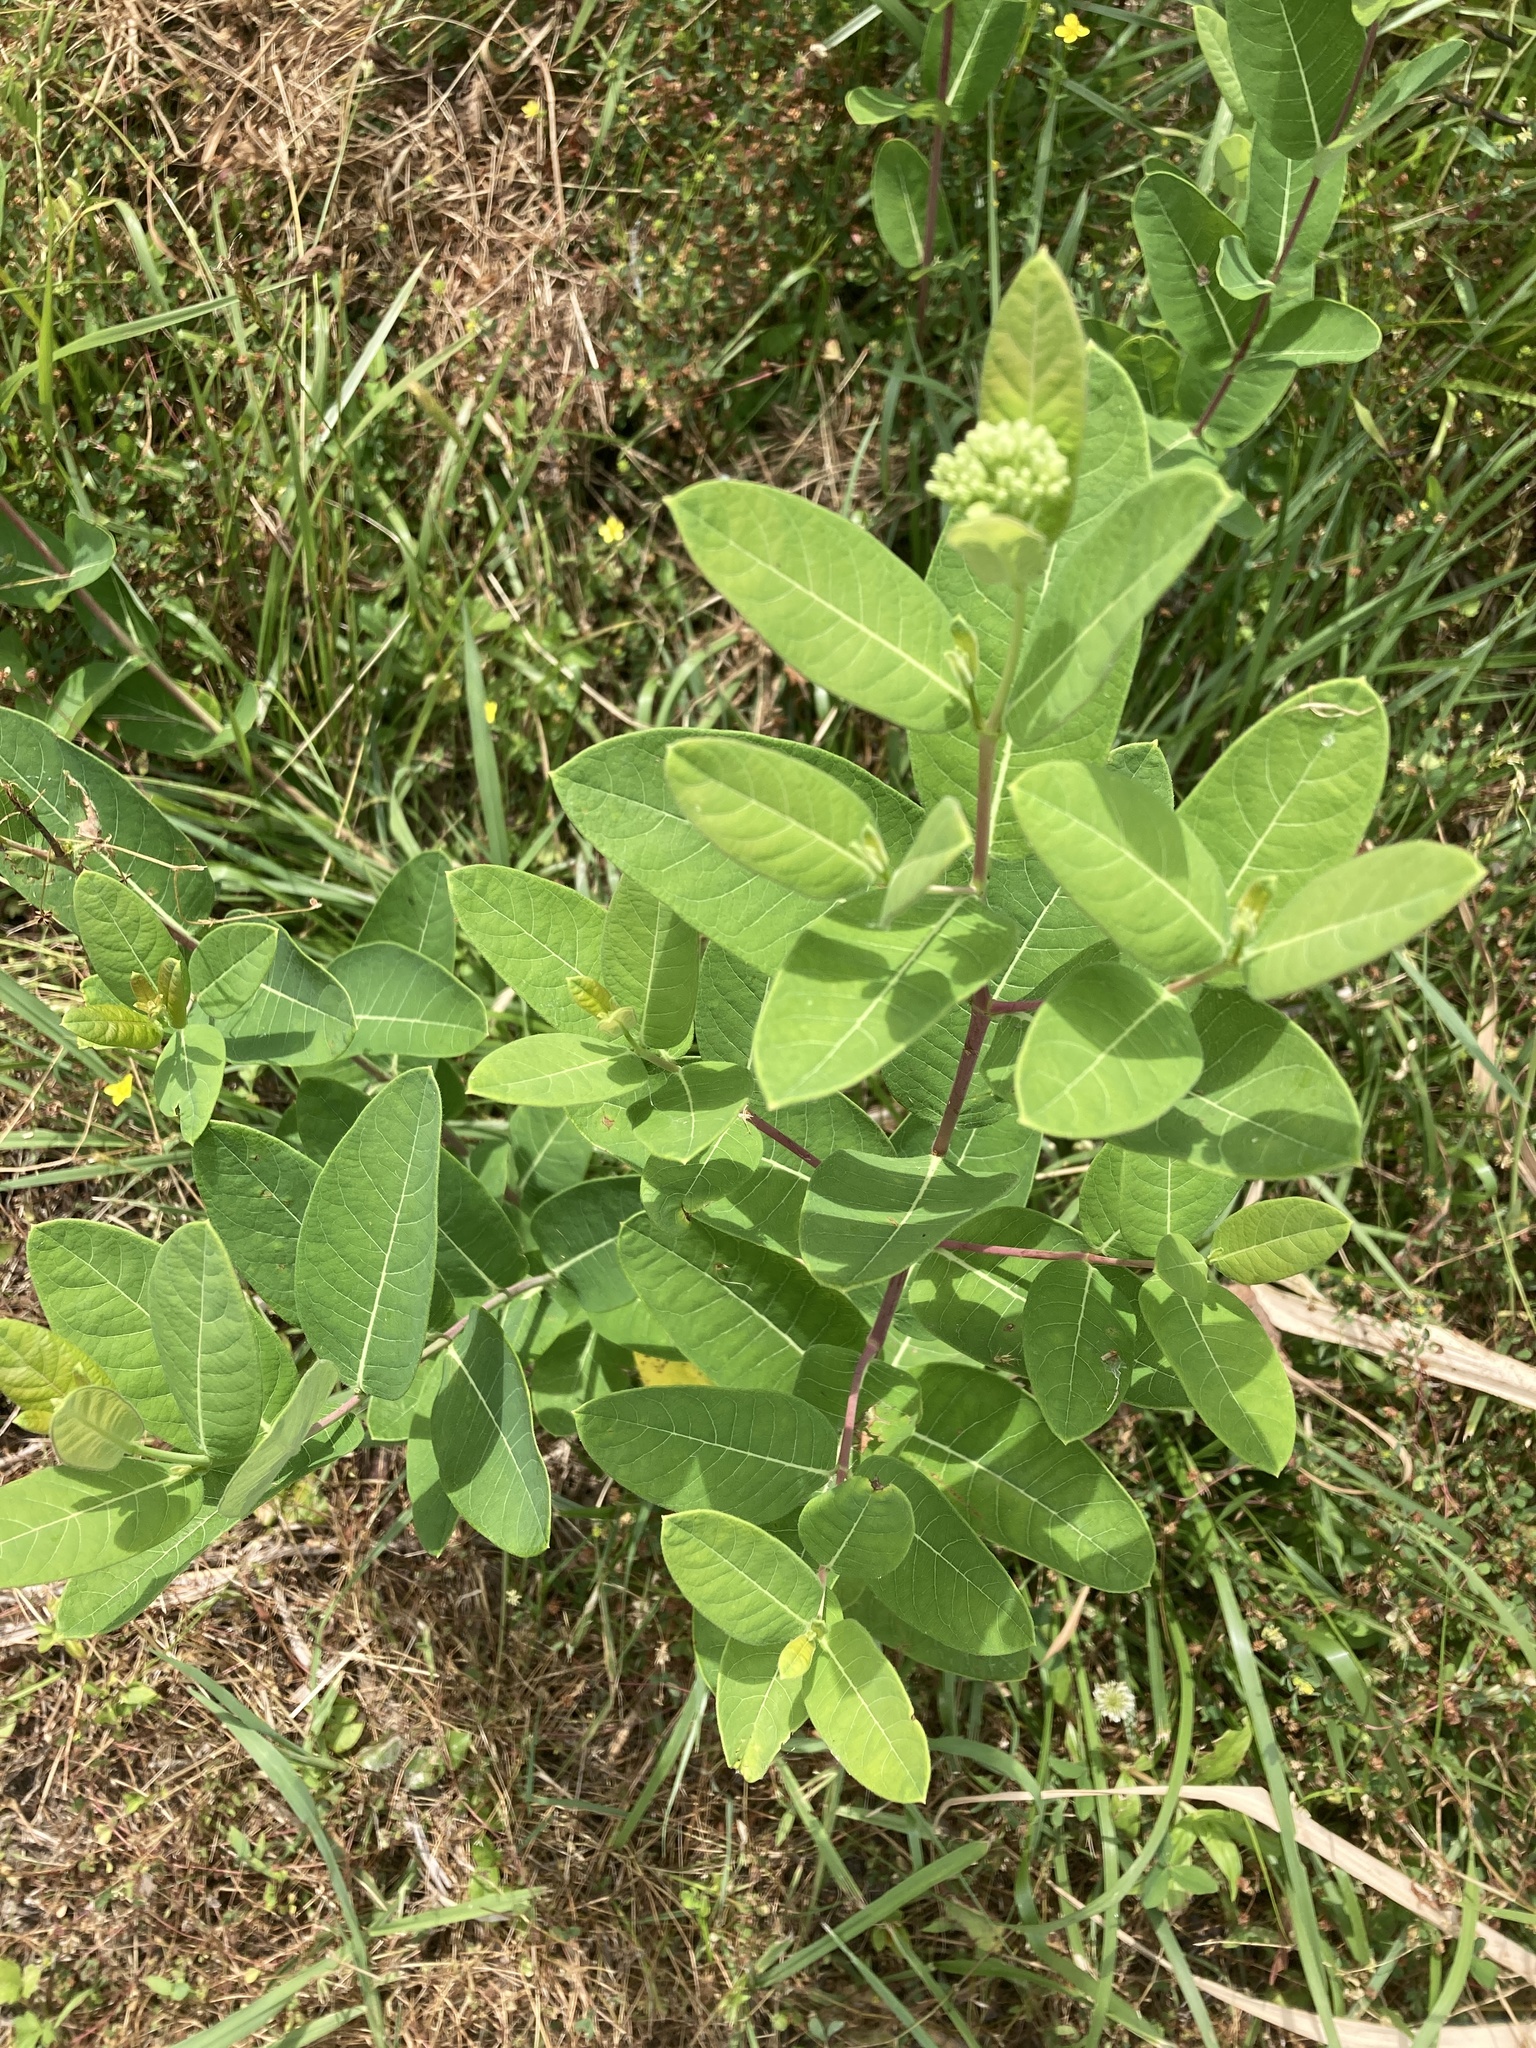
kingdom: Plantae
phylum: Tracheophyta
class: Magnoliopsida
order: Gentianales
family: Apocynaceae
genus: Apocynum
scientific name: Apocynum cannabinum
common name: Hemp dogbane
